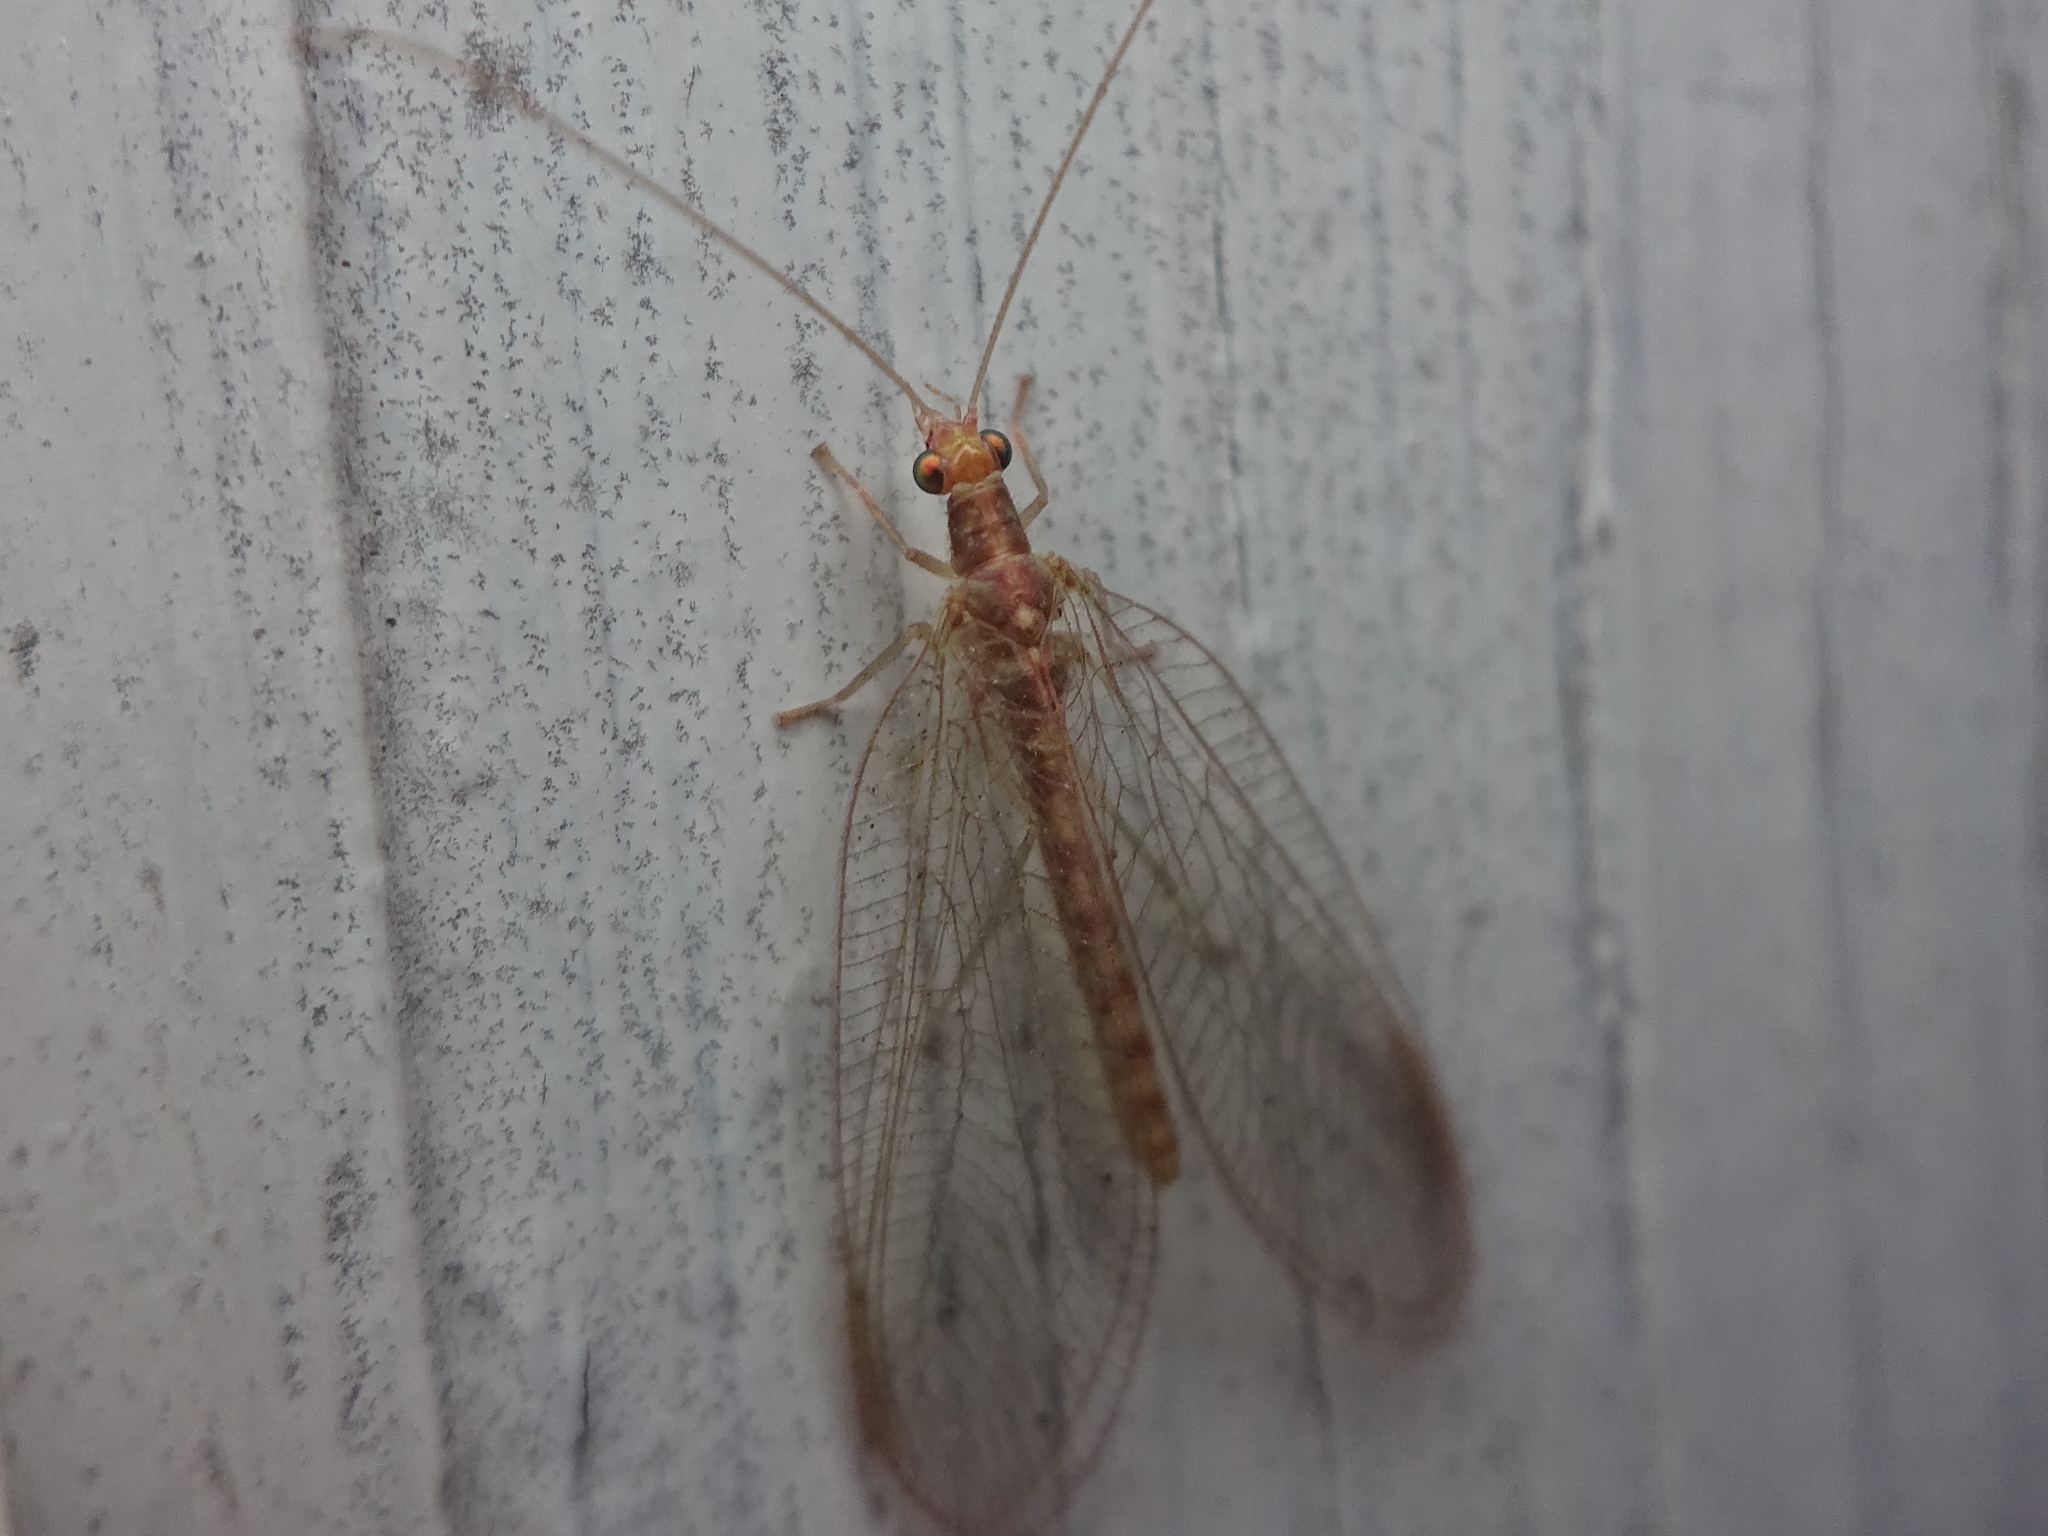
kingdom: Animalia
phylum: Arthropoda
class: Insecta
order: Neuroptera
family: Chrysopidae
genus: Chrysoperla
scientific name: Chrysoperla
